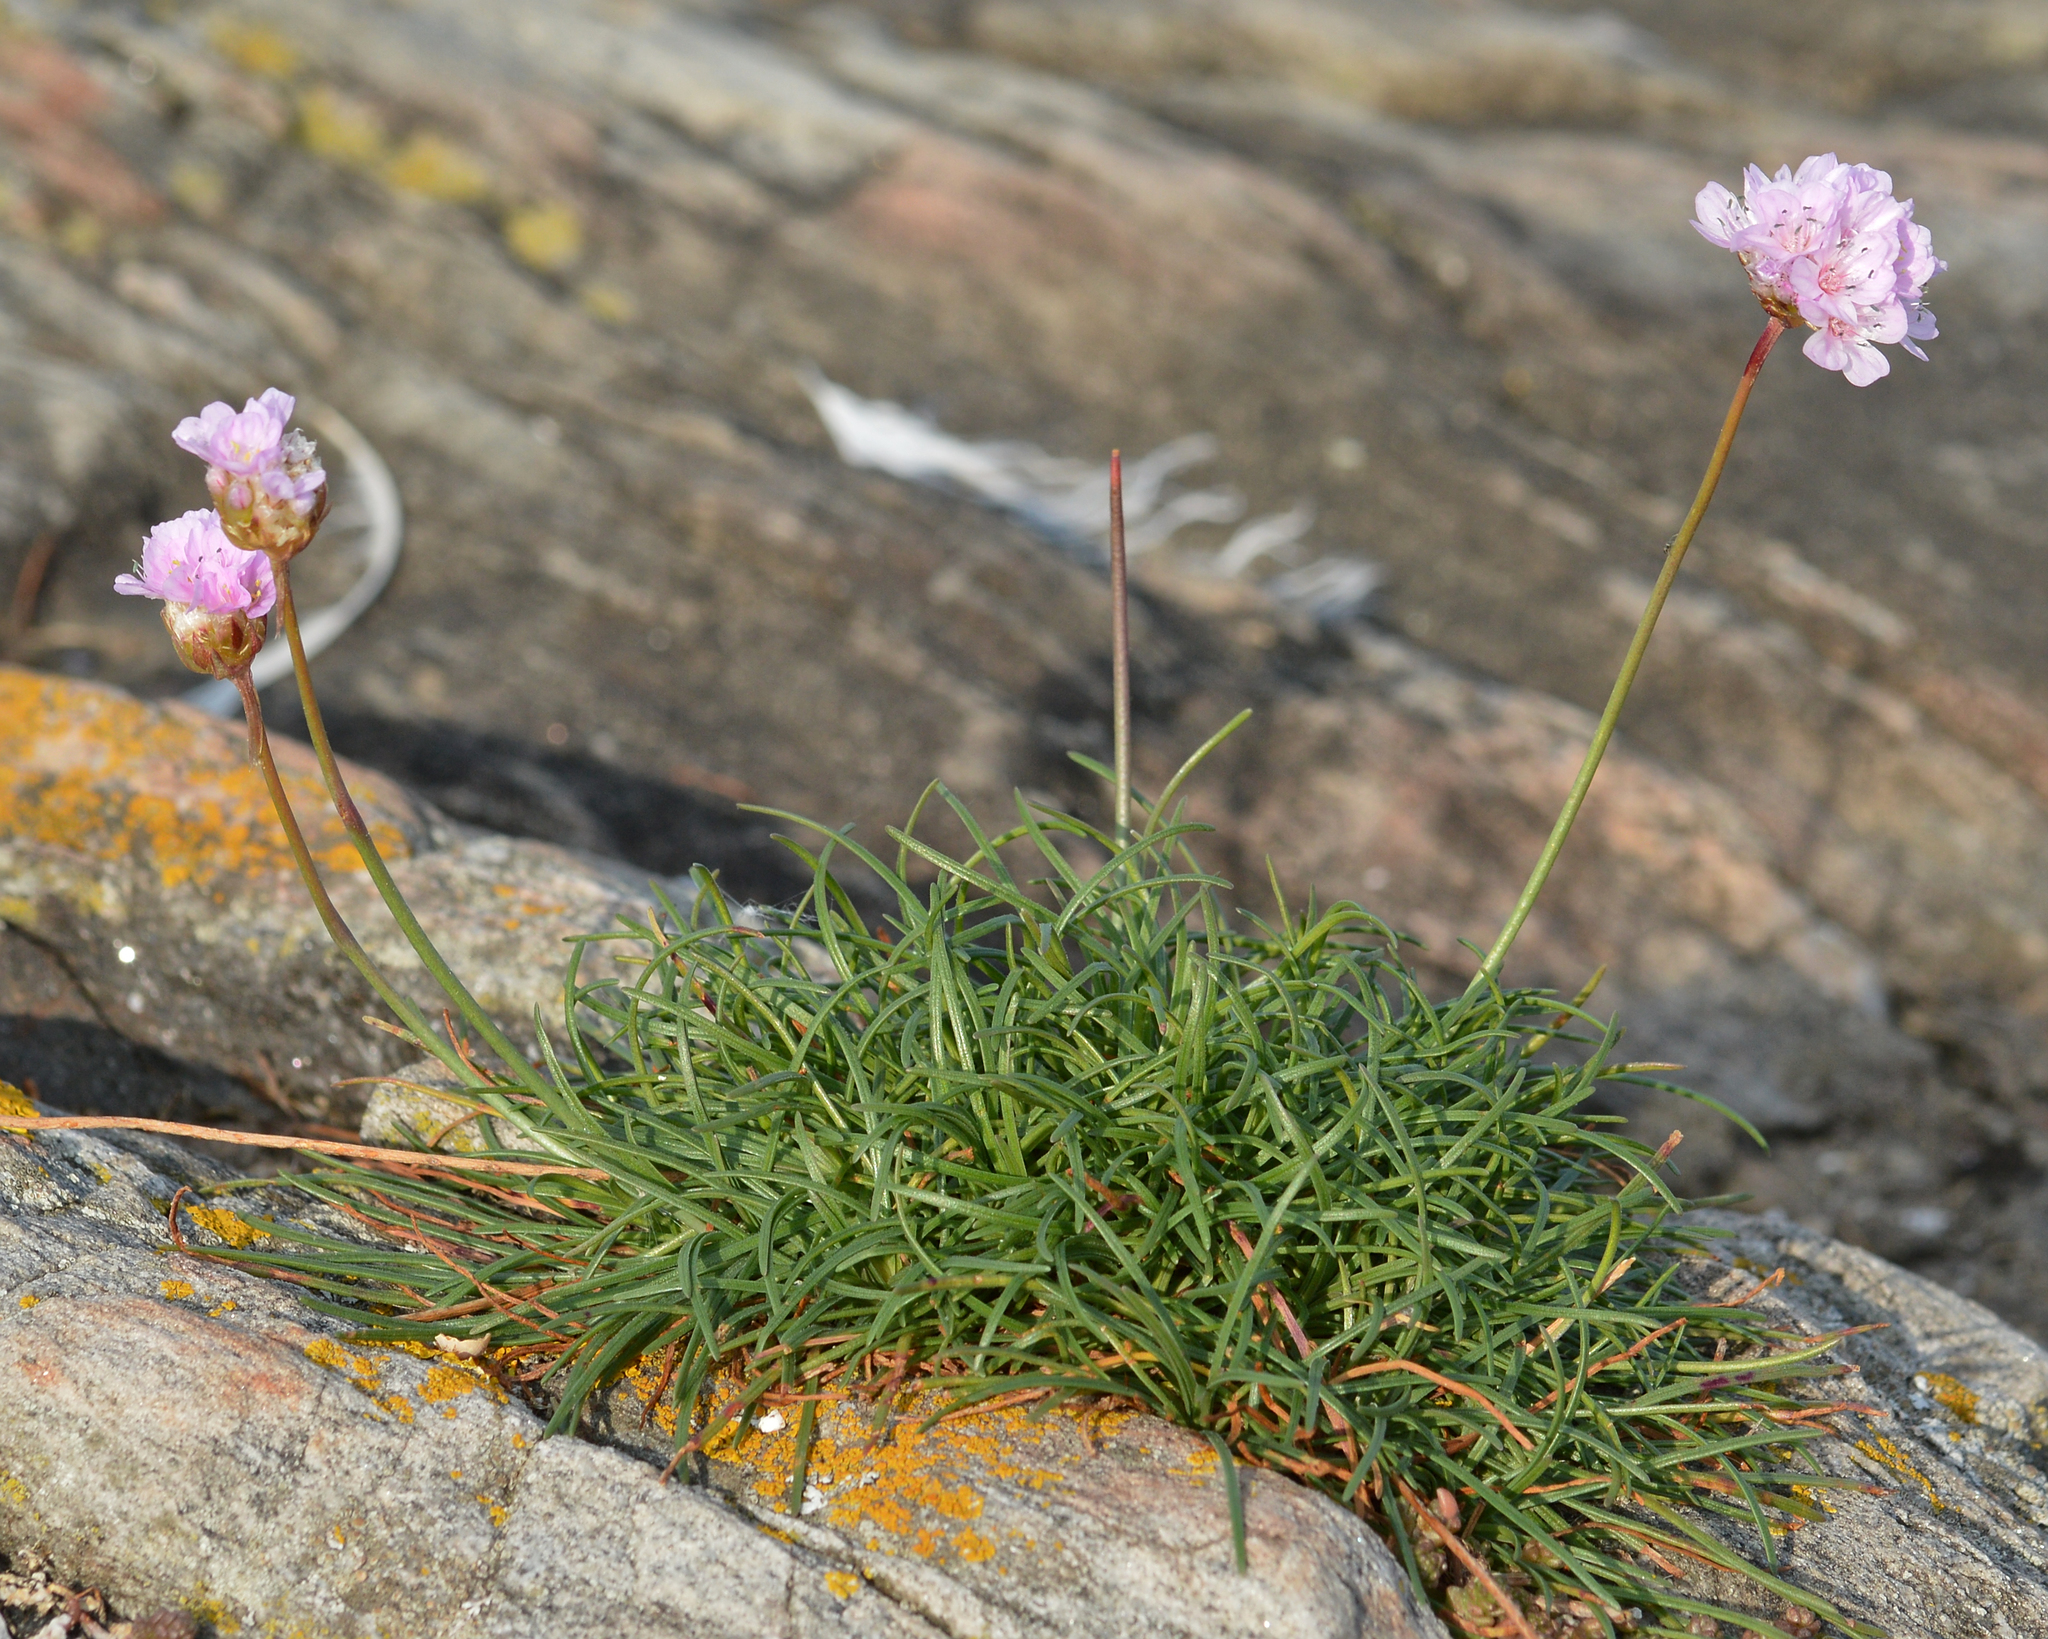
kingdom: Plantae
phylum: Tracheophyta
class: Magnoliopsida
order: Caryophyllales
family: Plumbaginaceae
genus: Armeria
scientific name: Armeria maritima
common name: Thrift
